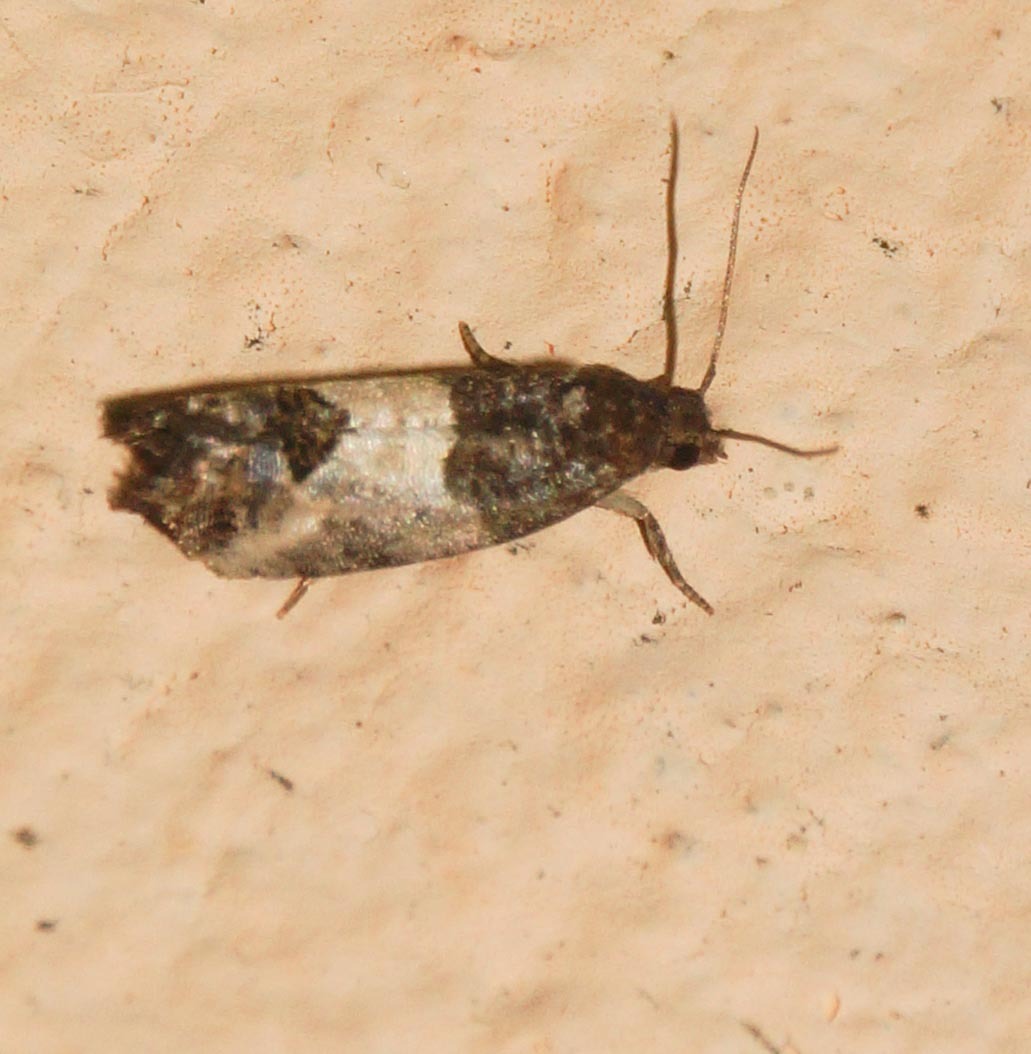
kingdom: Animalia
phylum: Arthropoda
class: Insecta
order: Lepidoptera
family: Tortricidae
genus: Spilonota
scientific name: Spilonota ocellana
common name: Bud moth
